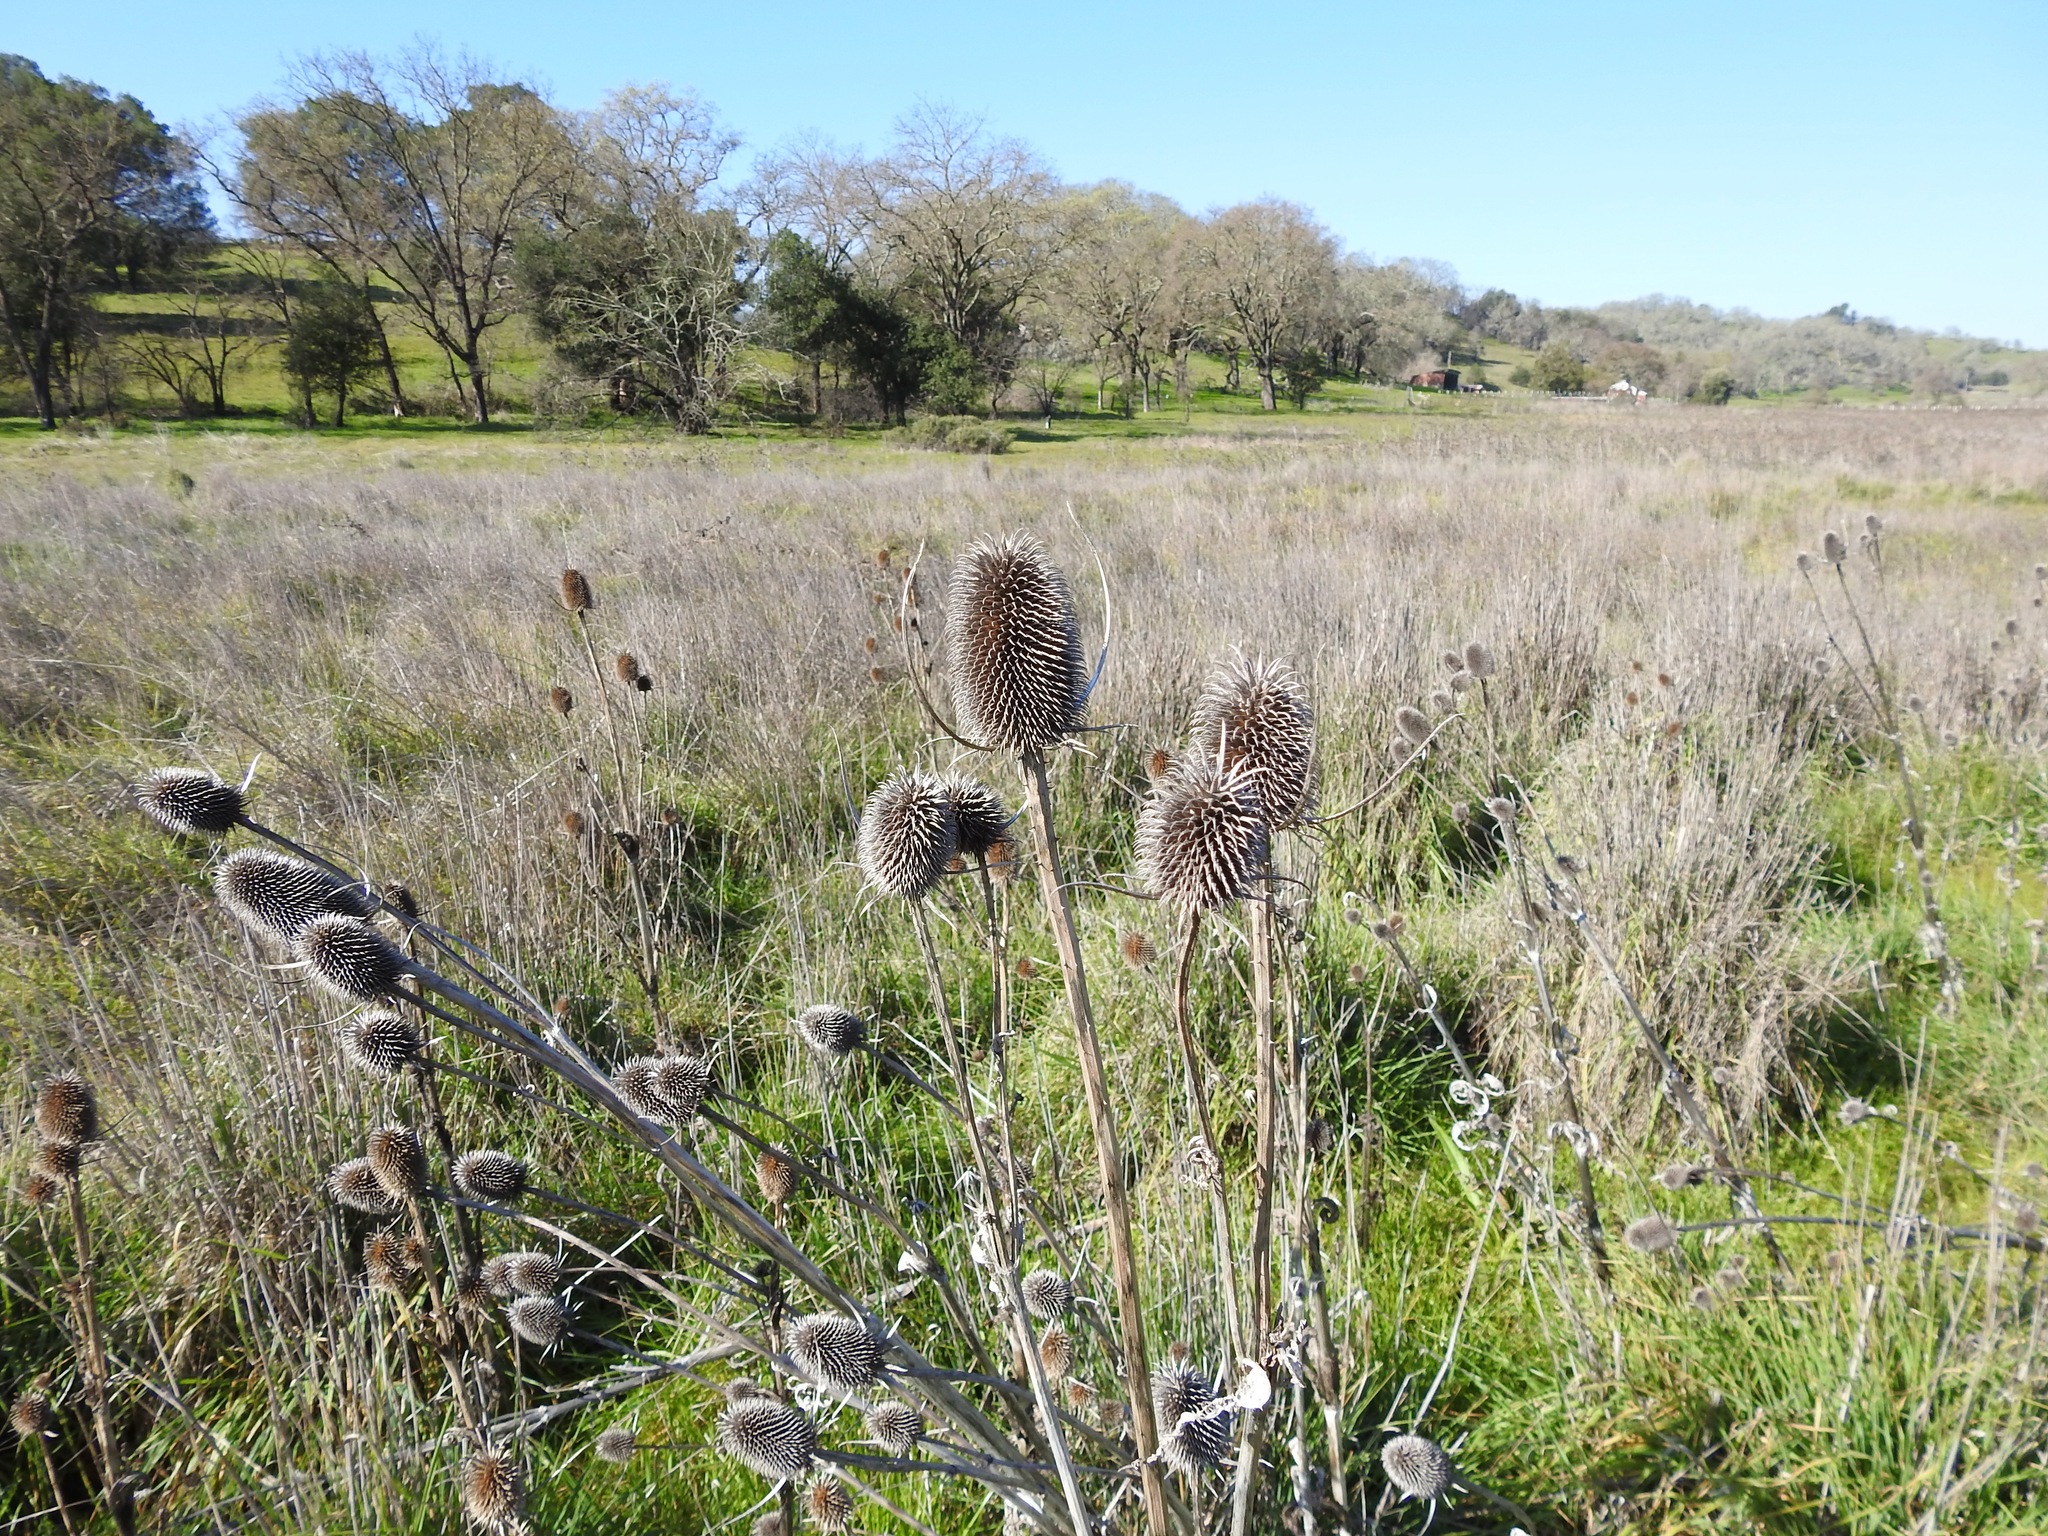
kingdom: Plantae
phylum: Tracheophyta
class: Magnoliopsida
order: Dipsacales
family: Caprifoliaceae
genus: Dipsacus
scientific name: Dipsacus sativus
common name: Fuller's teasel
